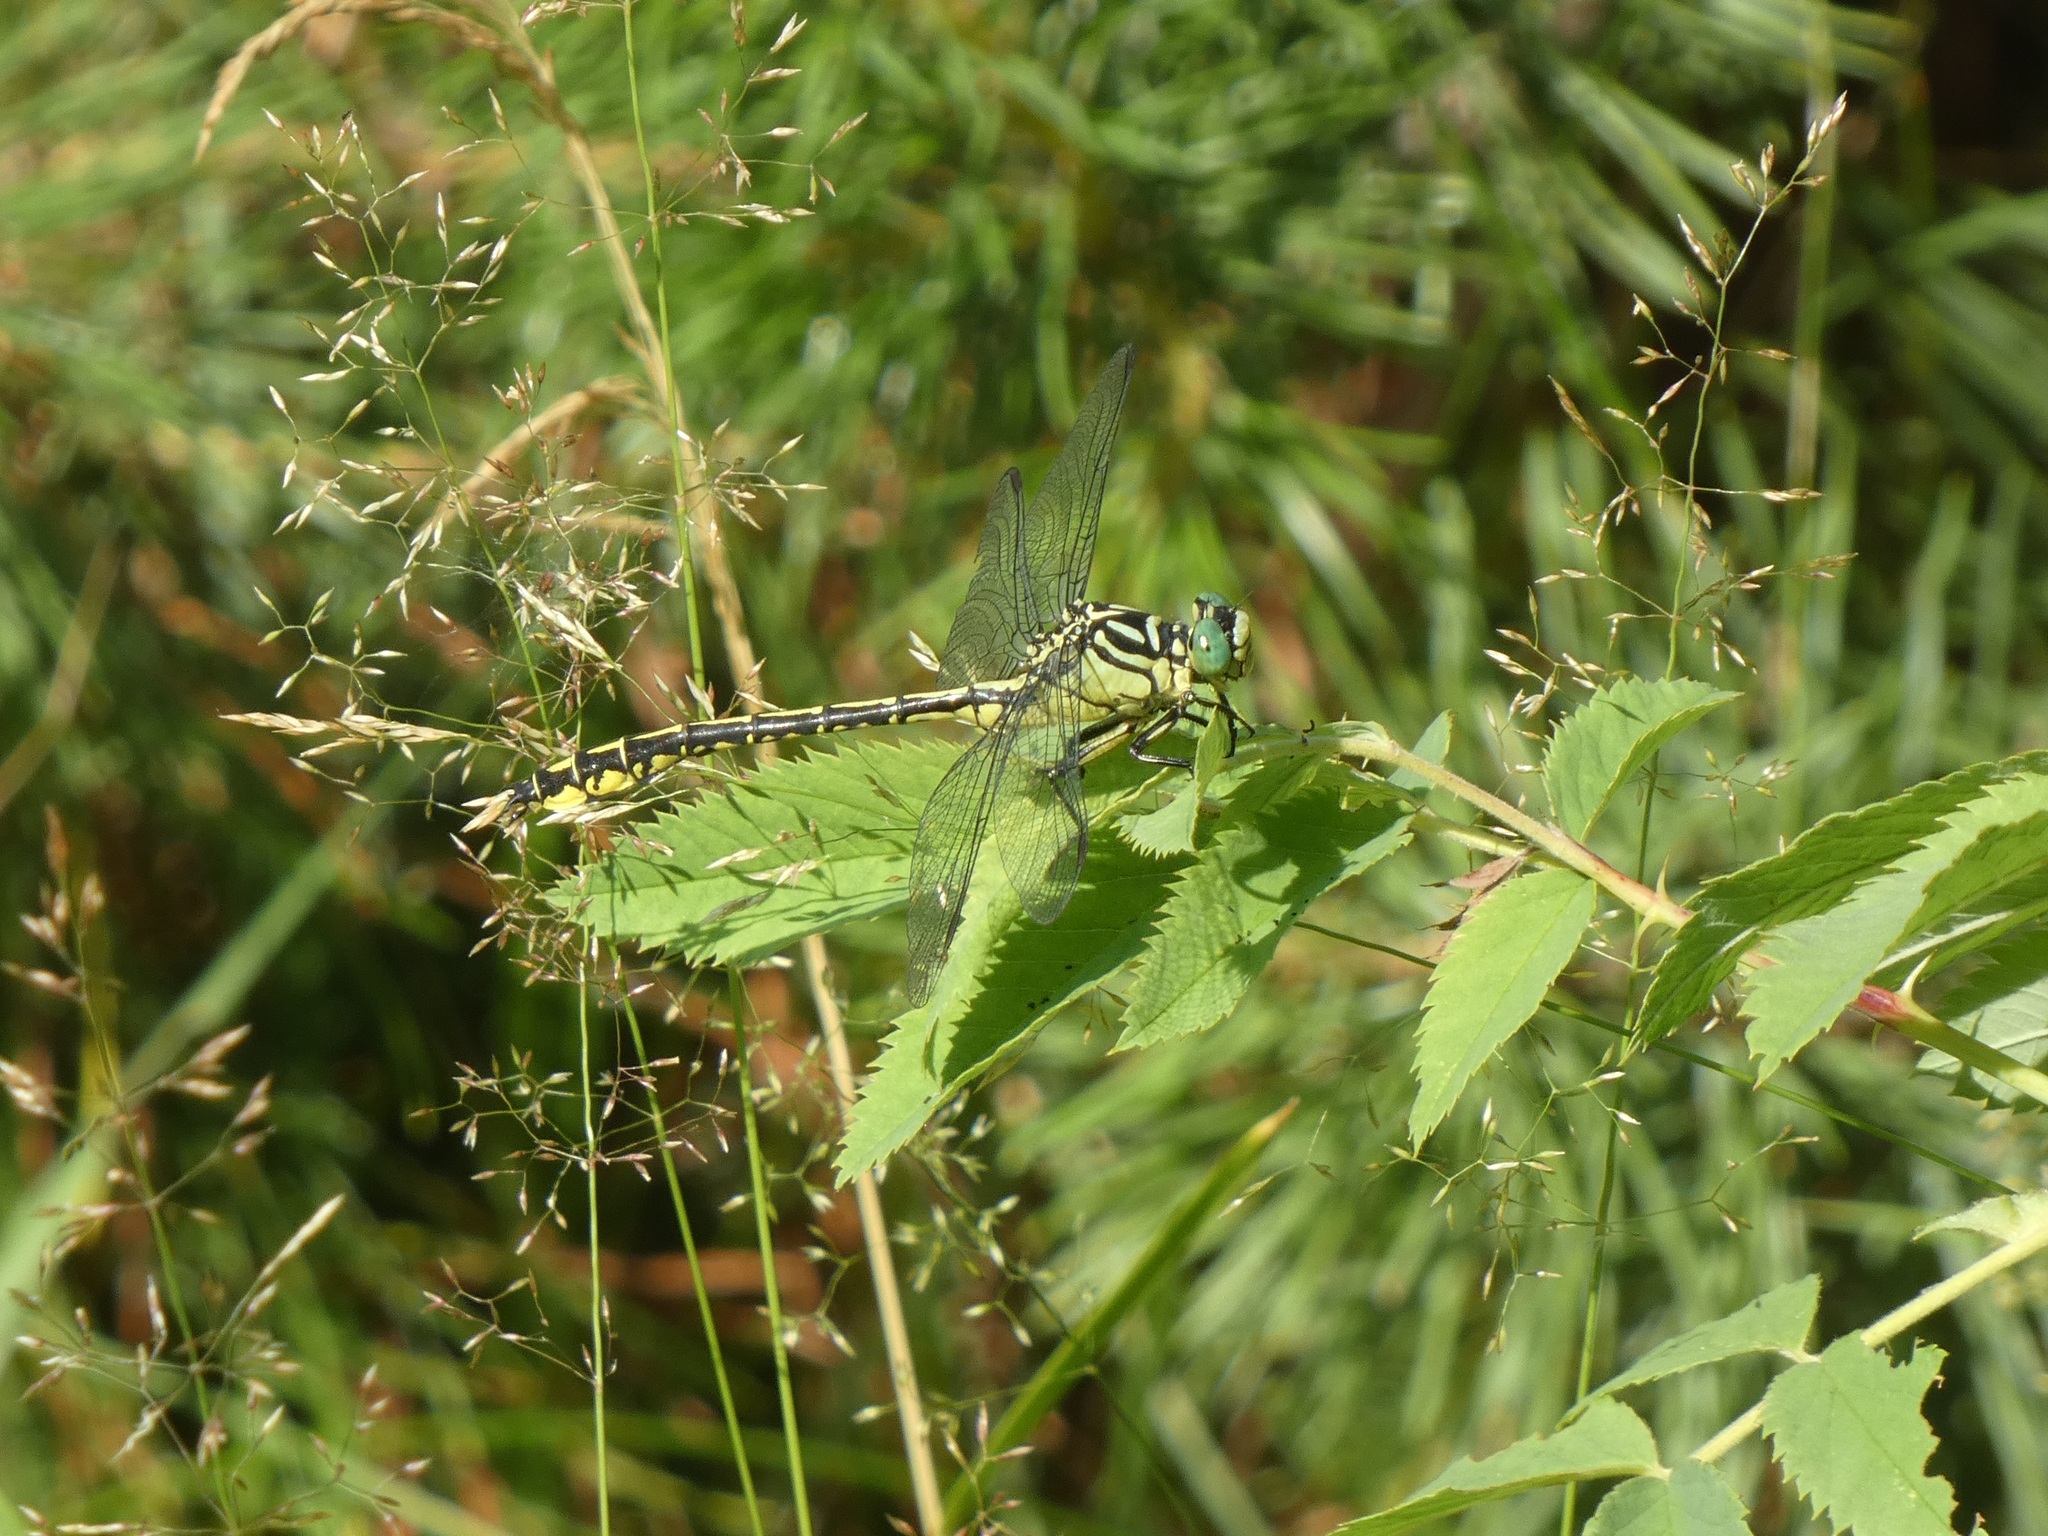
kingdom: Animalia
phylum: Arthropoda
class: Insecta
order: Odonata
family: Gomphidae
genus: Stylurus
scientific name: Stylurus flavipes
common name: River clubtail
